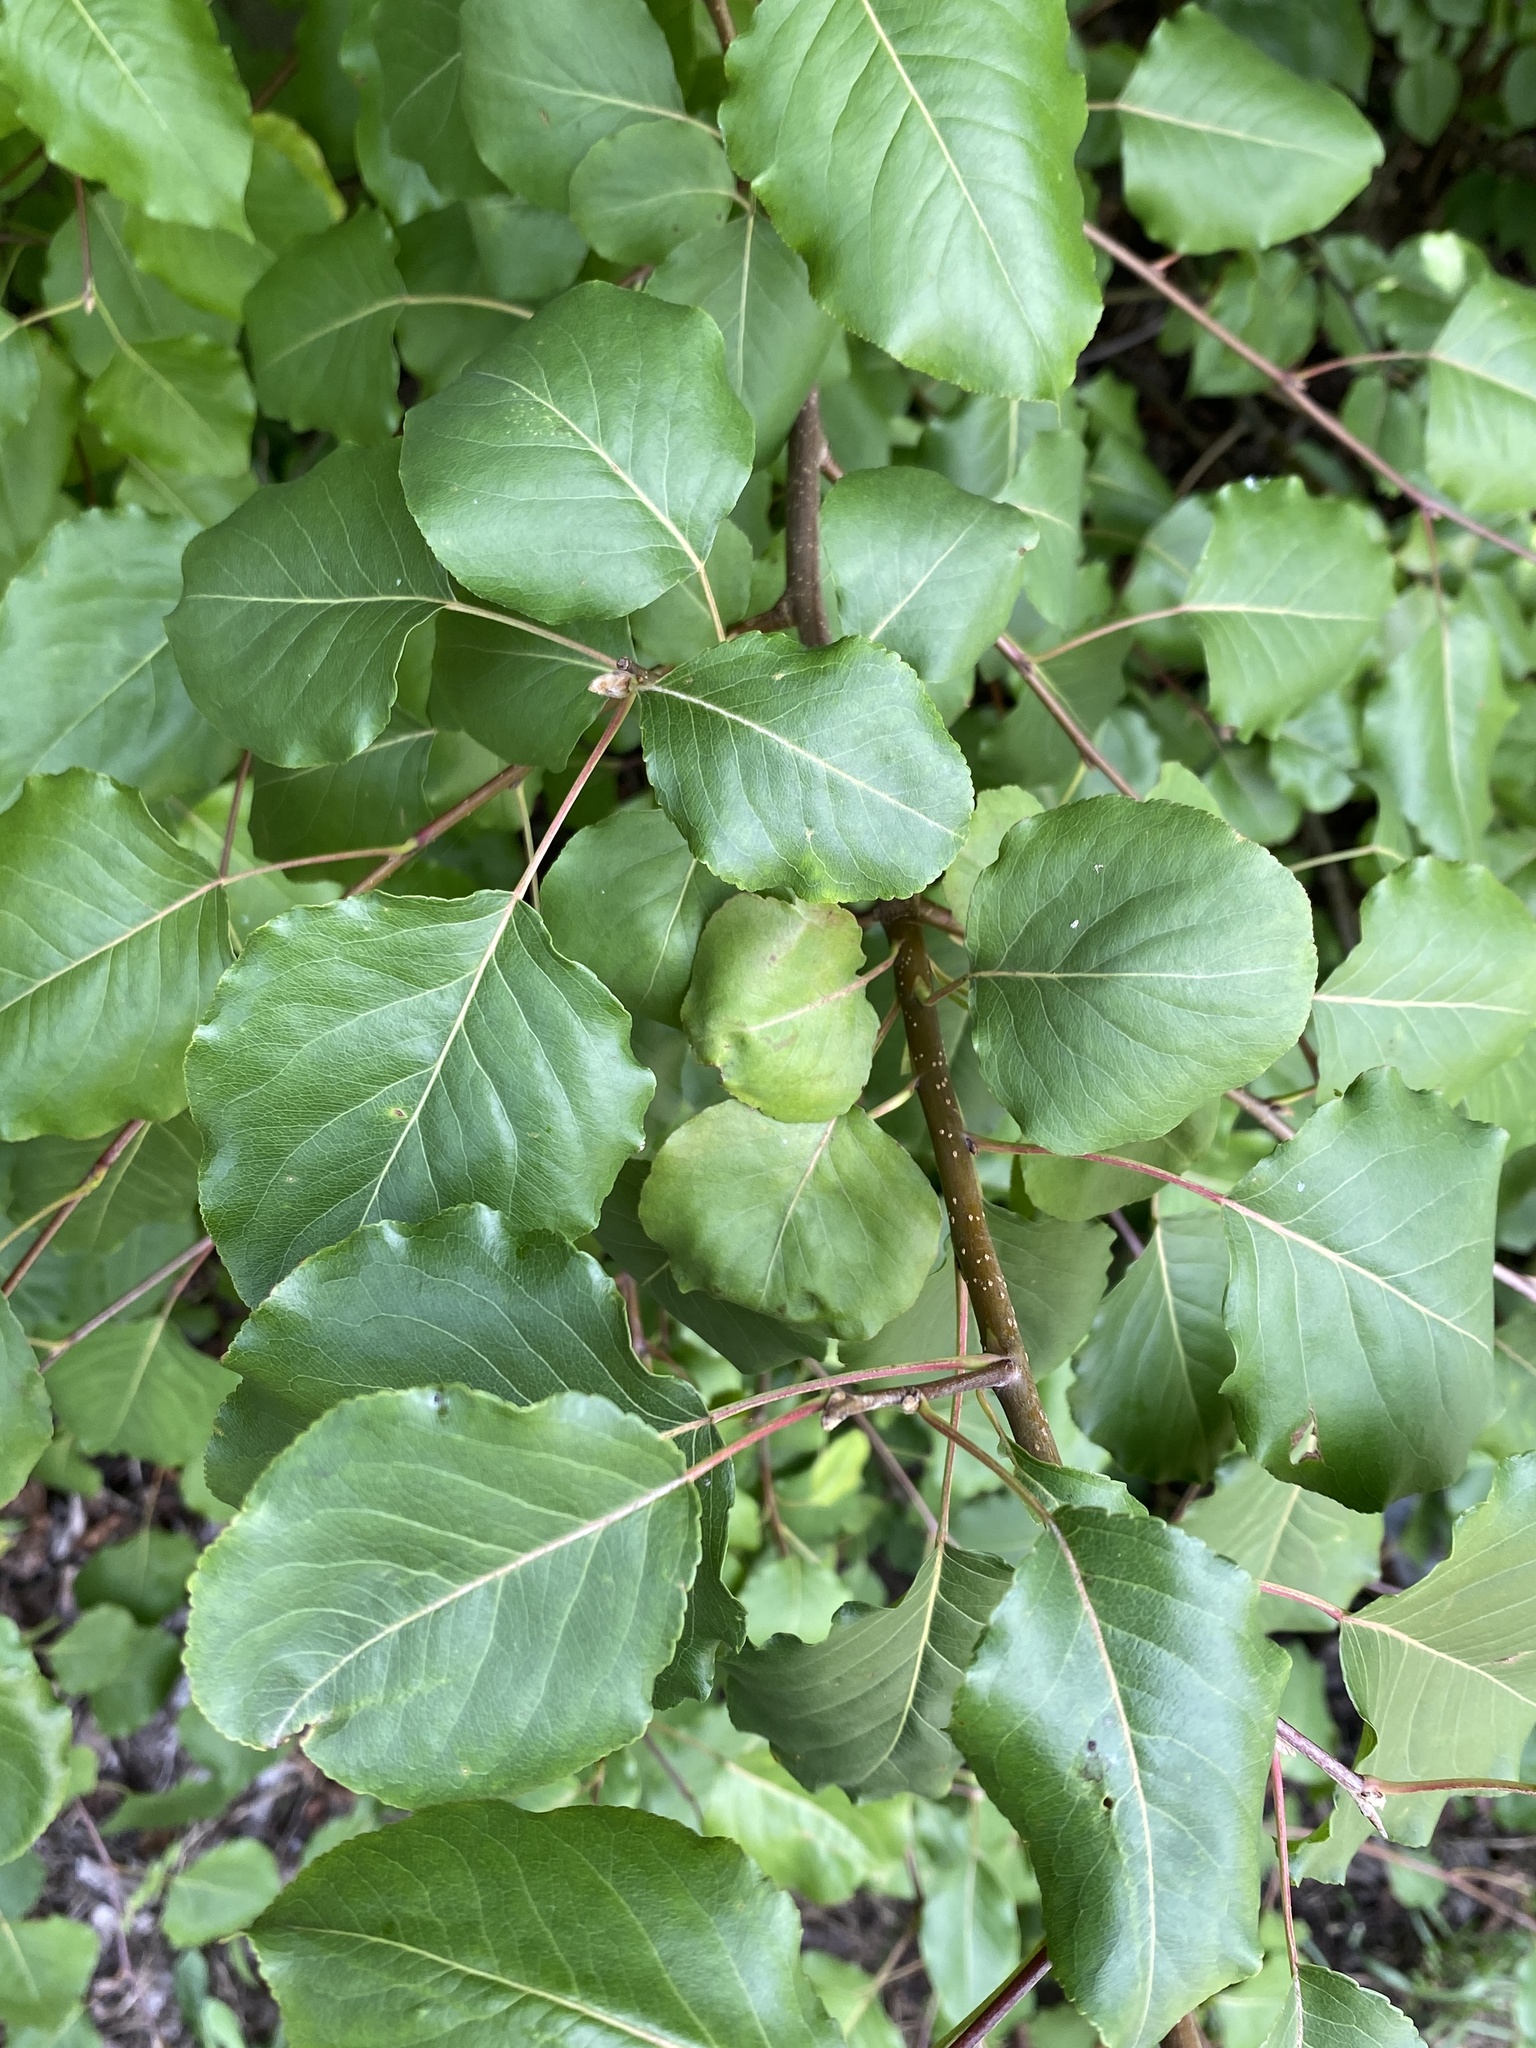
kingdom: Plantae
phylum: Tracheophyta
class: Magnoliopsida
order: Rosales
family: Rosaceae
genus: Pyrus
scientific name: Pyrus calleryana
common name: Callery pear
